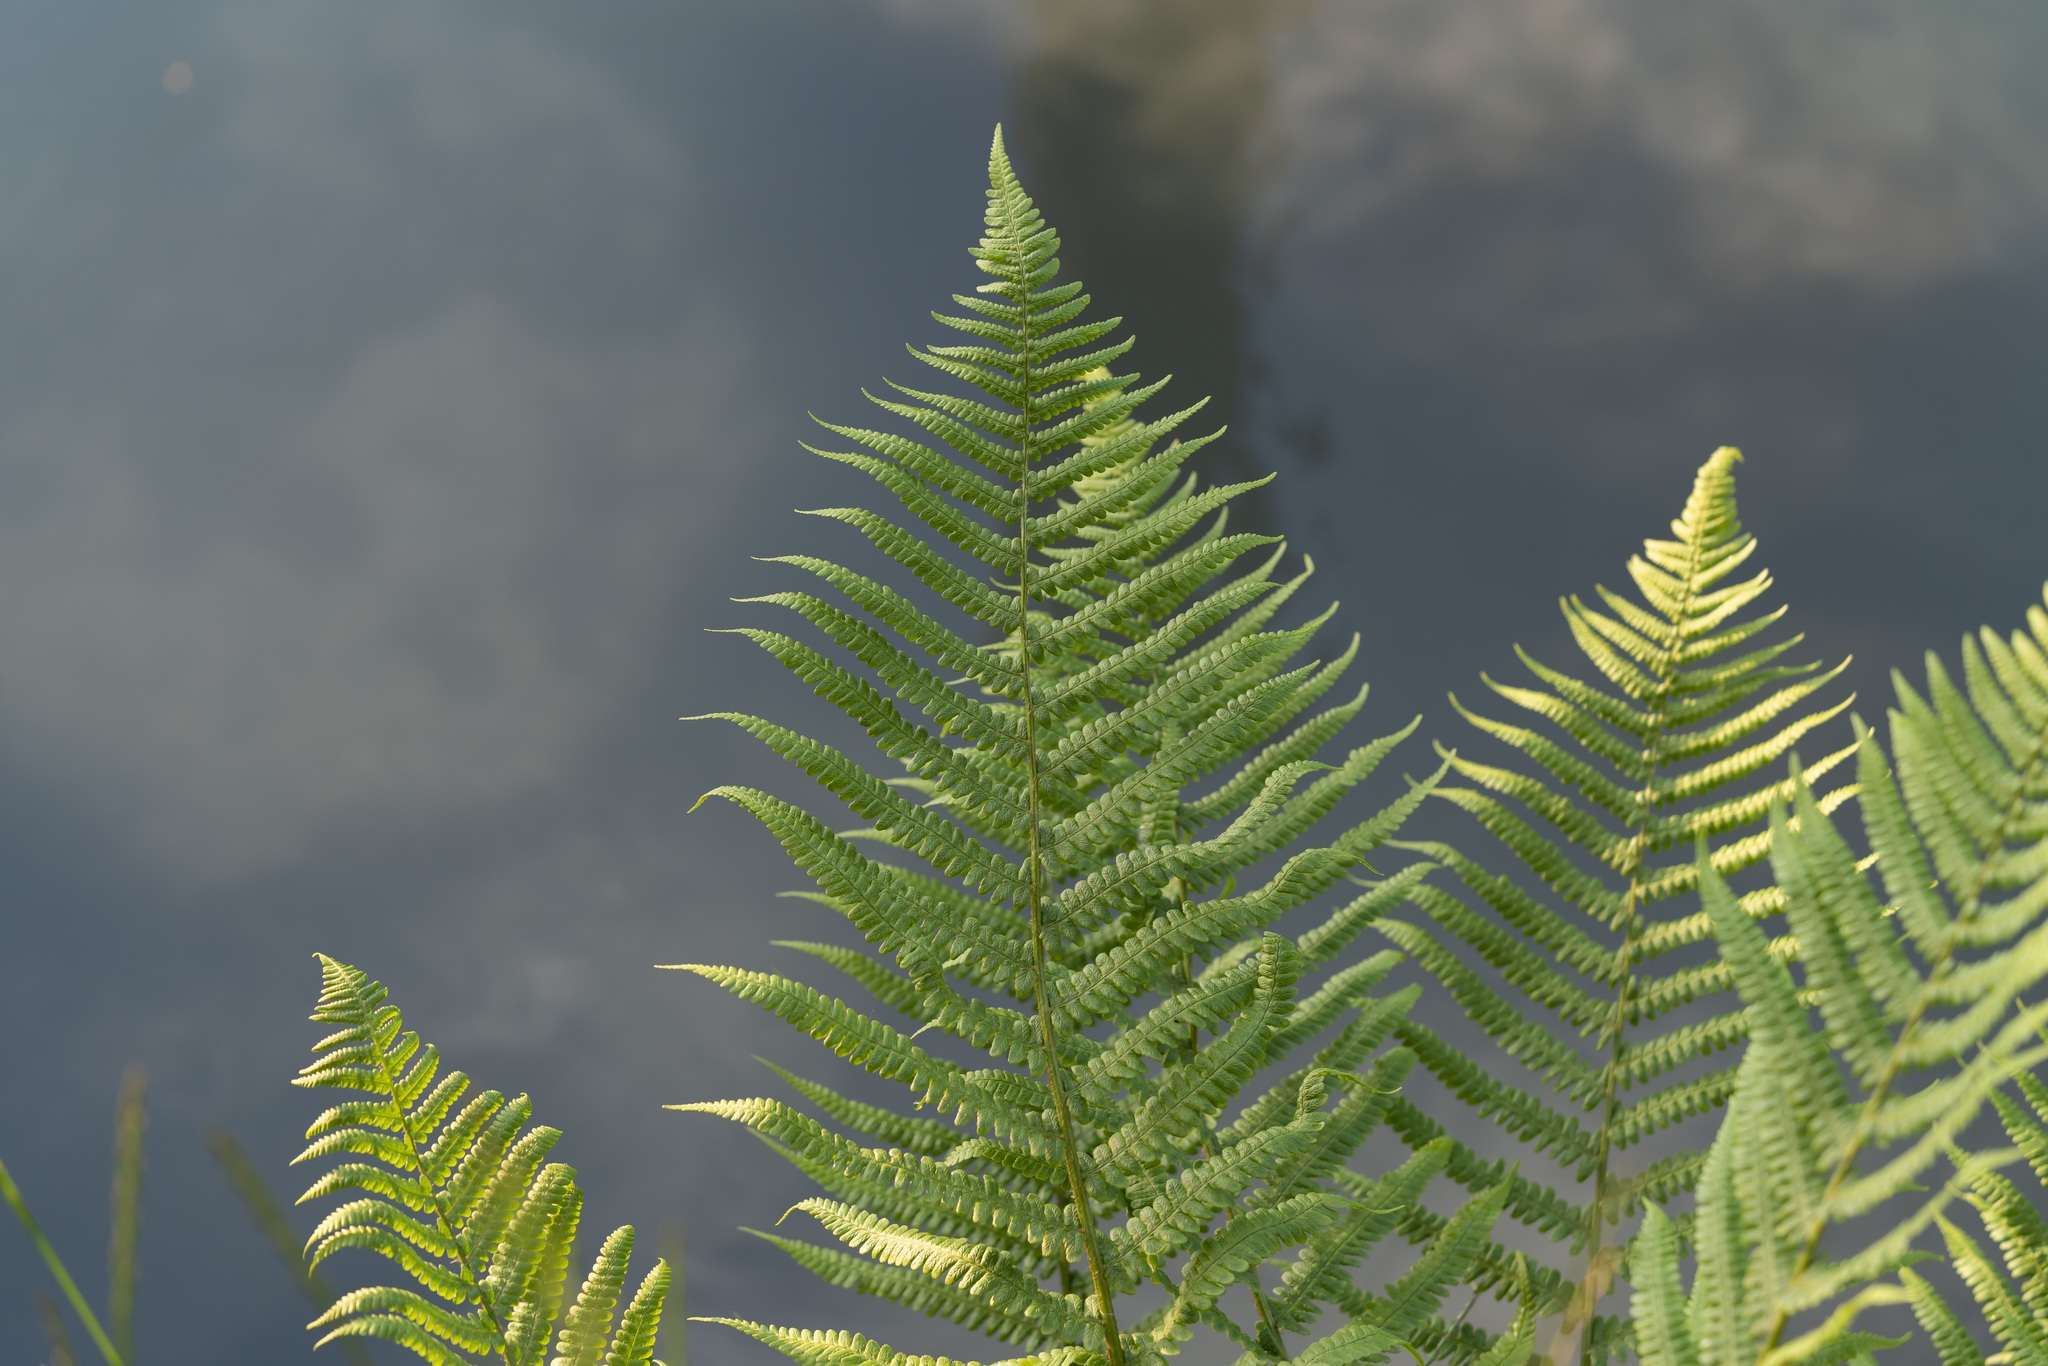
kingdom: Plantae
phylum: Tracheophyta
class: Polypodiopsida
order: Polypodiales
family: Dryopteridaceae
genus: Dryopteris
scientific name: Dryopteris filix-mas
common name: Male fern
